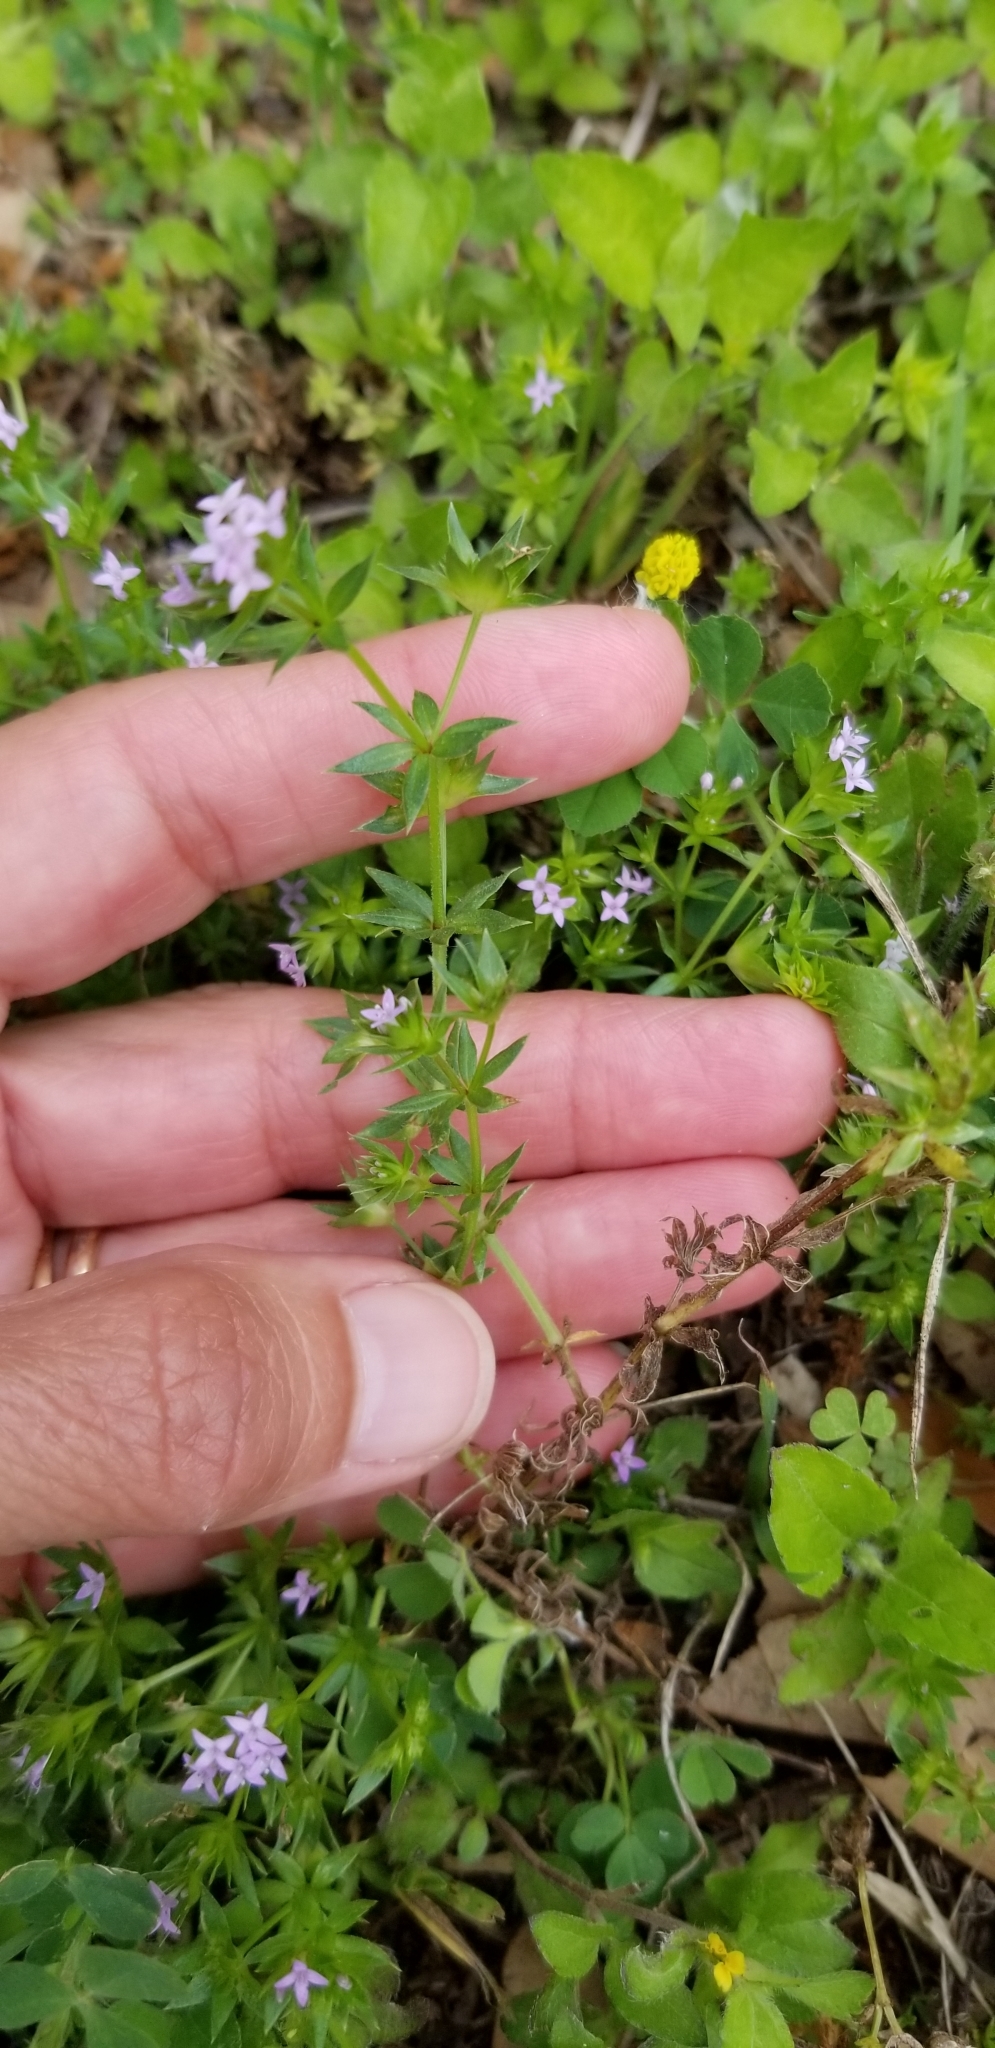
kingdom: Plantae
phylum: Tracheophyta
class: Magnoliopsida
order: Gentianales
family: Rubiaceae
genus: Sherardia
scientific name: Sherardia arvensis
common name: Field madder
